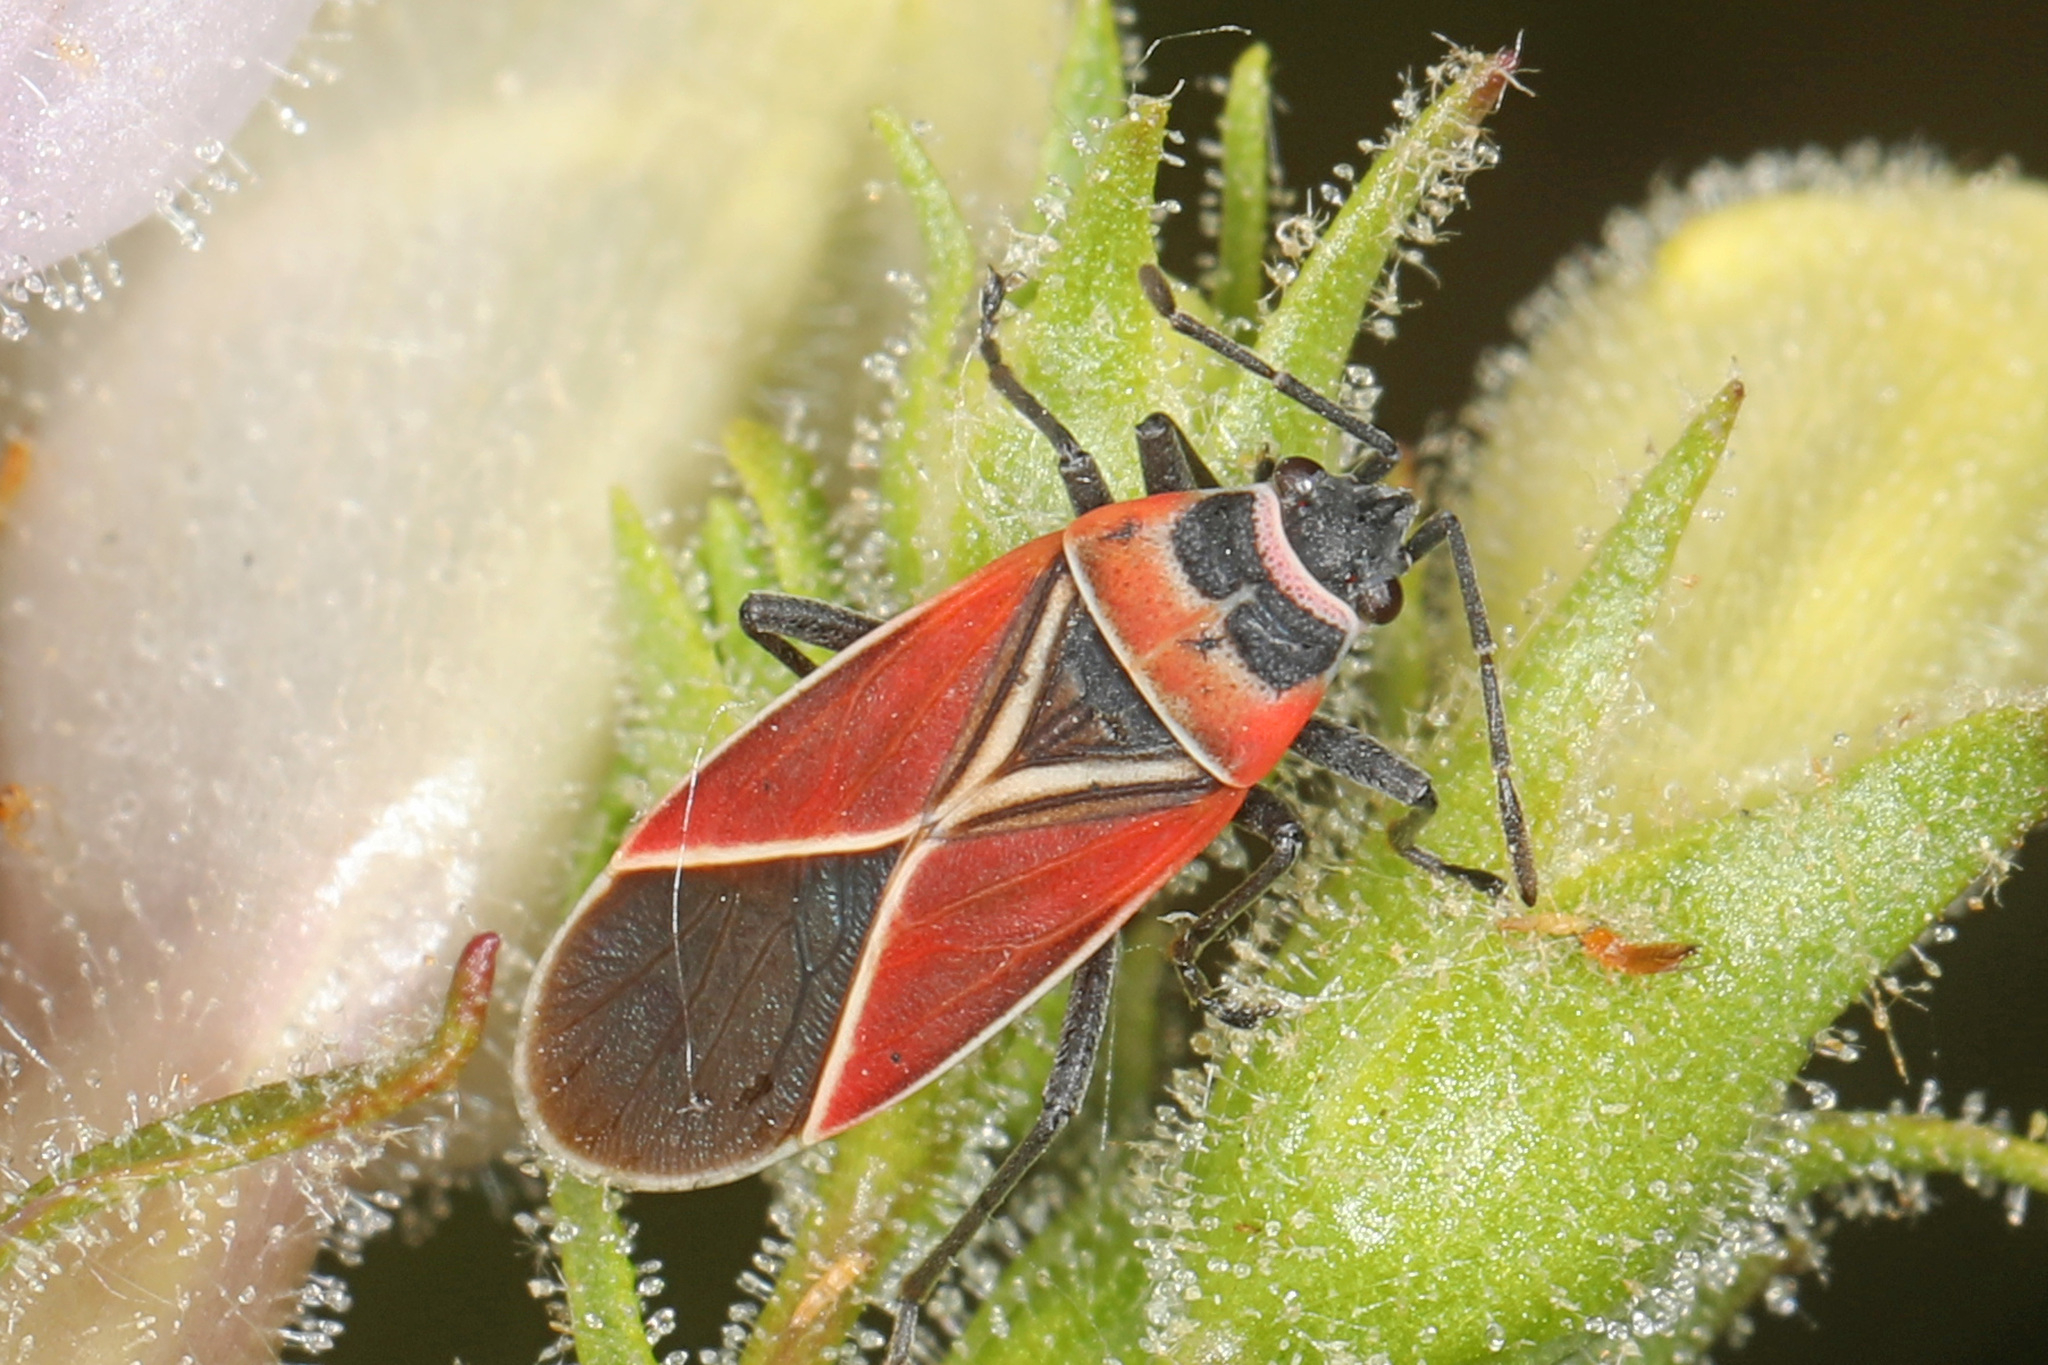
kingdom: Animalia
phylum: Arthropoda
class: Insecta
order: Hemiptera
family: Lygaeidae
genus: Neacoryphus
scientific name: Neacoryphus bicrucis
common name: Lygaeid bug
